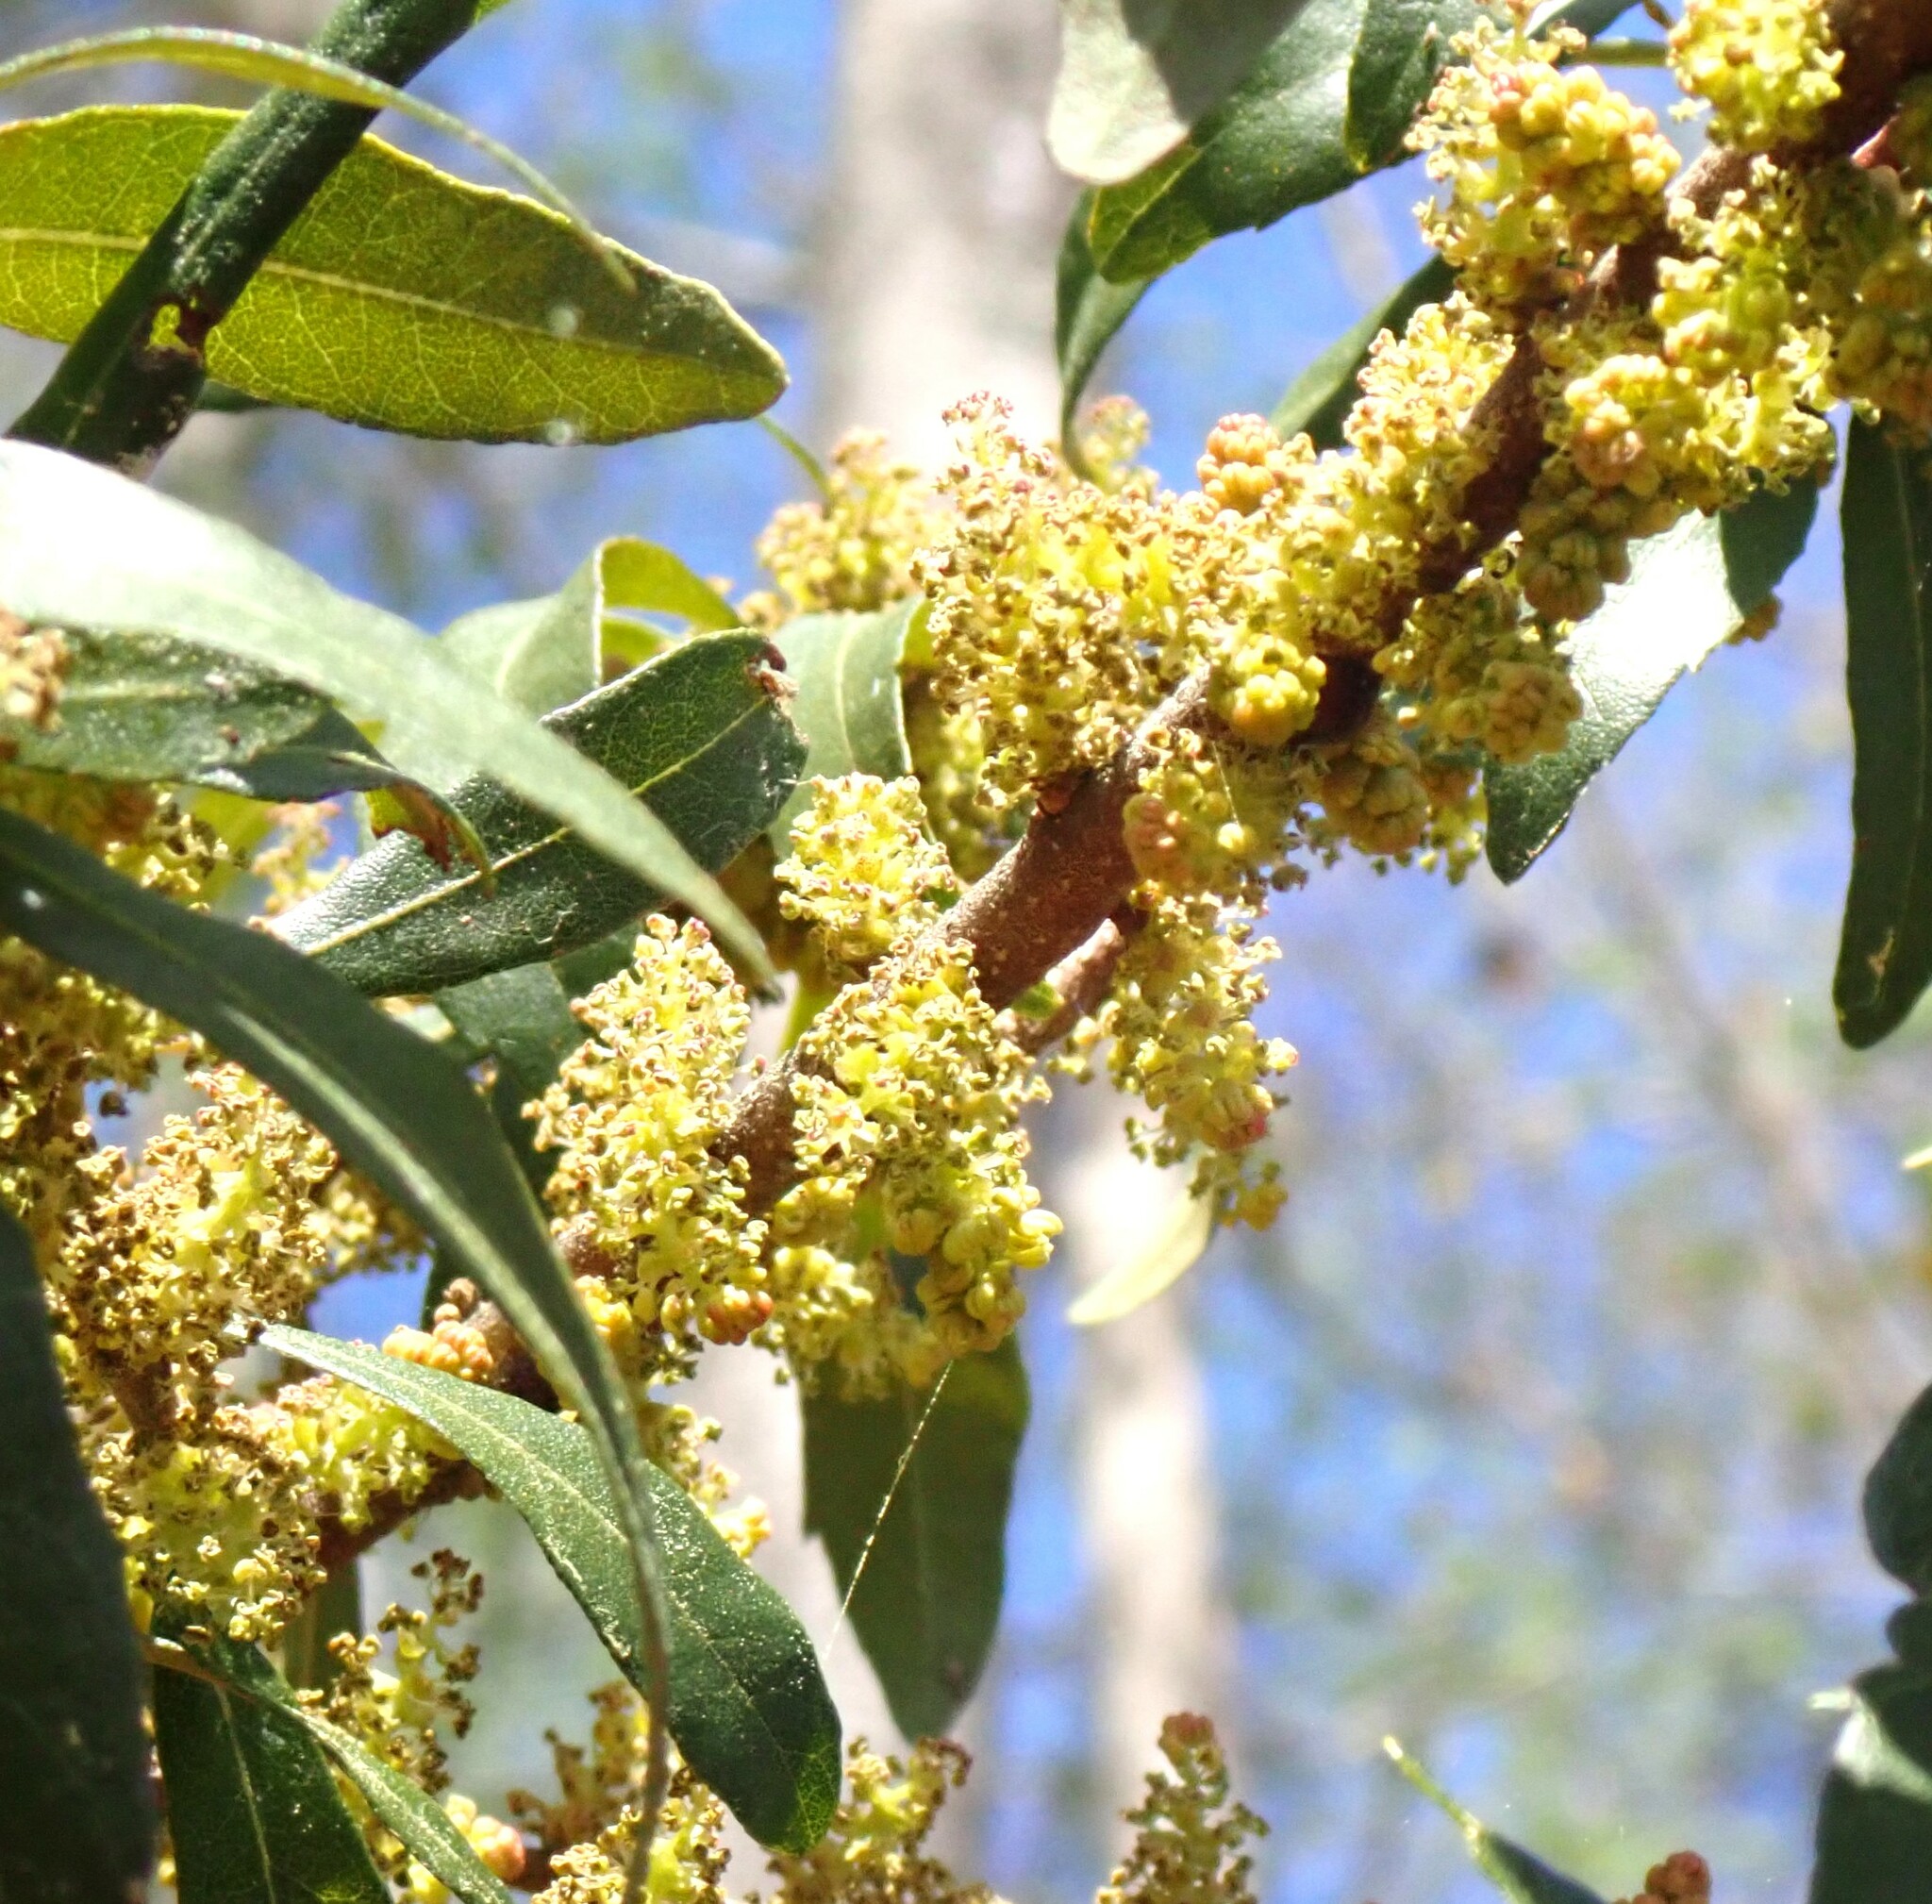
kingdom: Plantae
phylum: Tracheophyta
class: Magnoliopsida
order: Fagales
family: Myricaceae
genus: Morella
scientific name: Morella cerifera
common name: Wax myrtle
